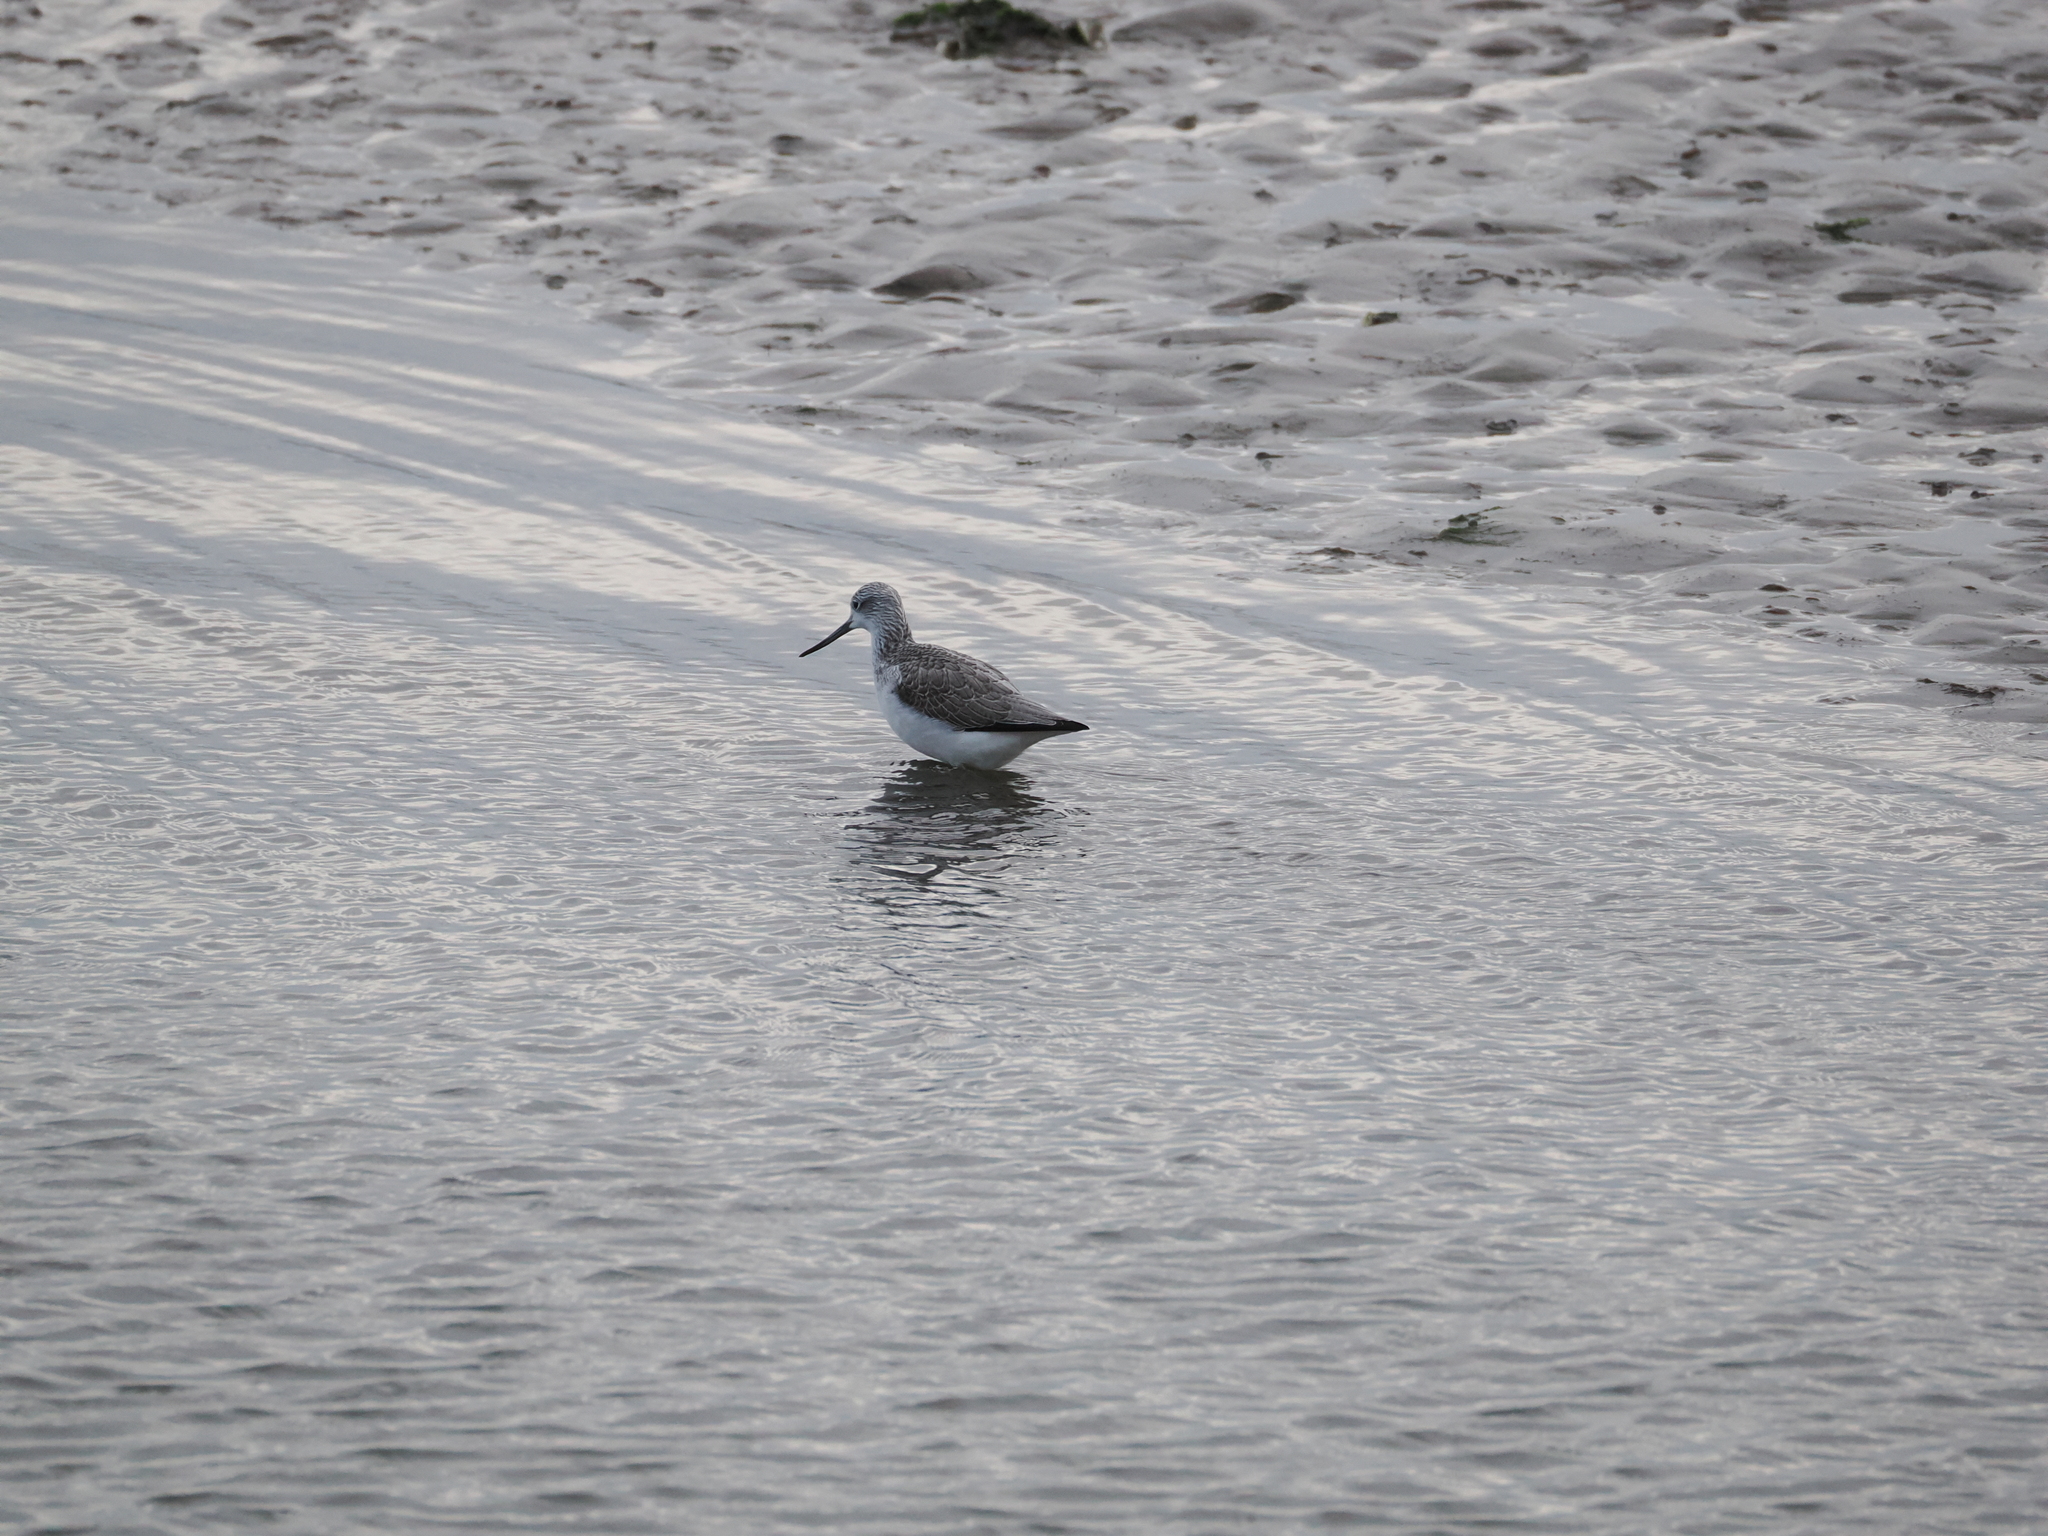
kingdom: Animalia
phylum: Chordata
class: Aves
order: Charadriiformes
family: Scolopacidae
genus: Tringa
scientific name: Tringa nebularia
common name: Common greenshank
